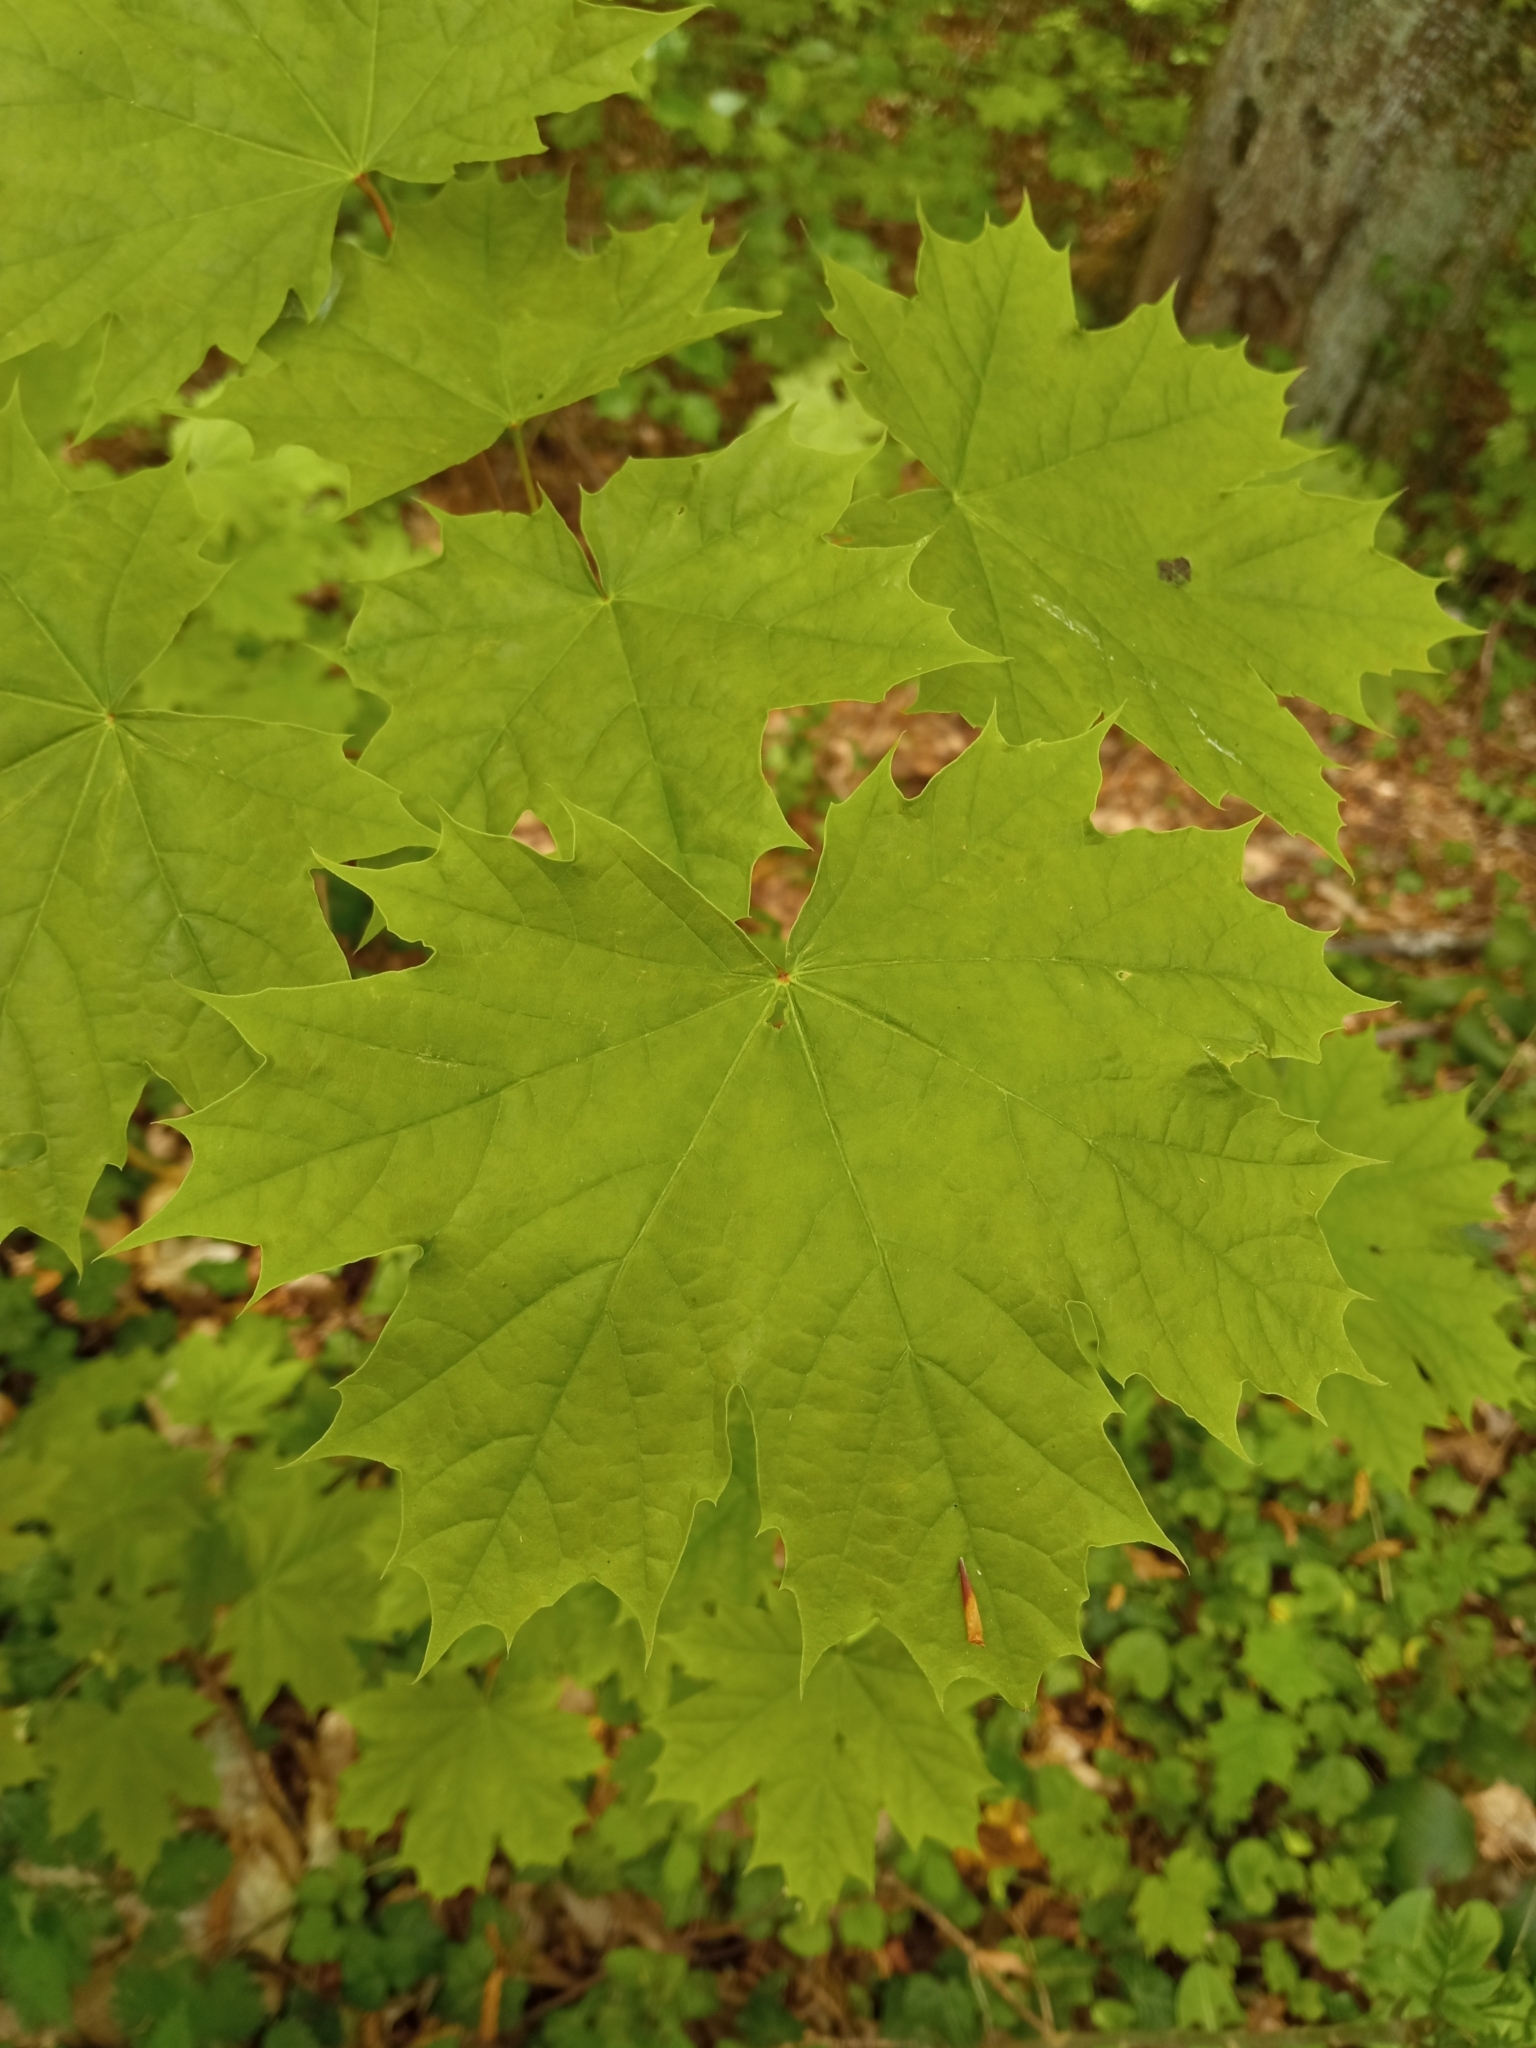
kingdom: Plantae
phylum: Tracheophyta
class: Magnoliopsida
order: Sapindales
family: Sapindaceae
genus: Acer
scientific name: Acer platanoides
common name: Norway maple
